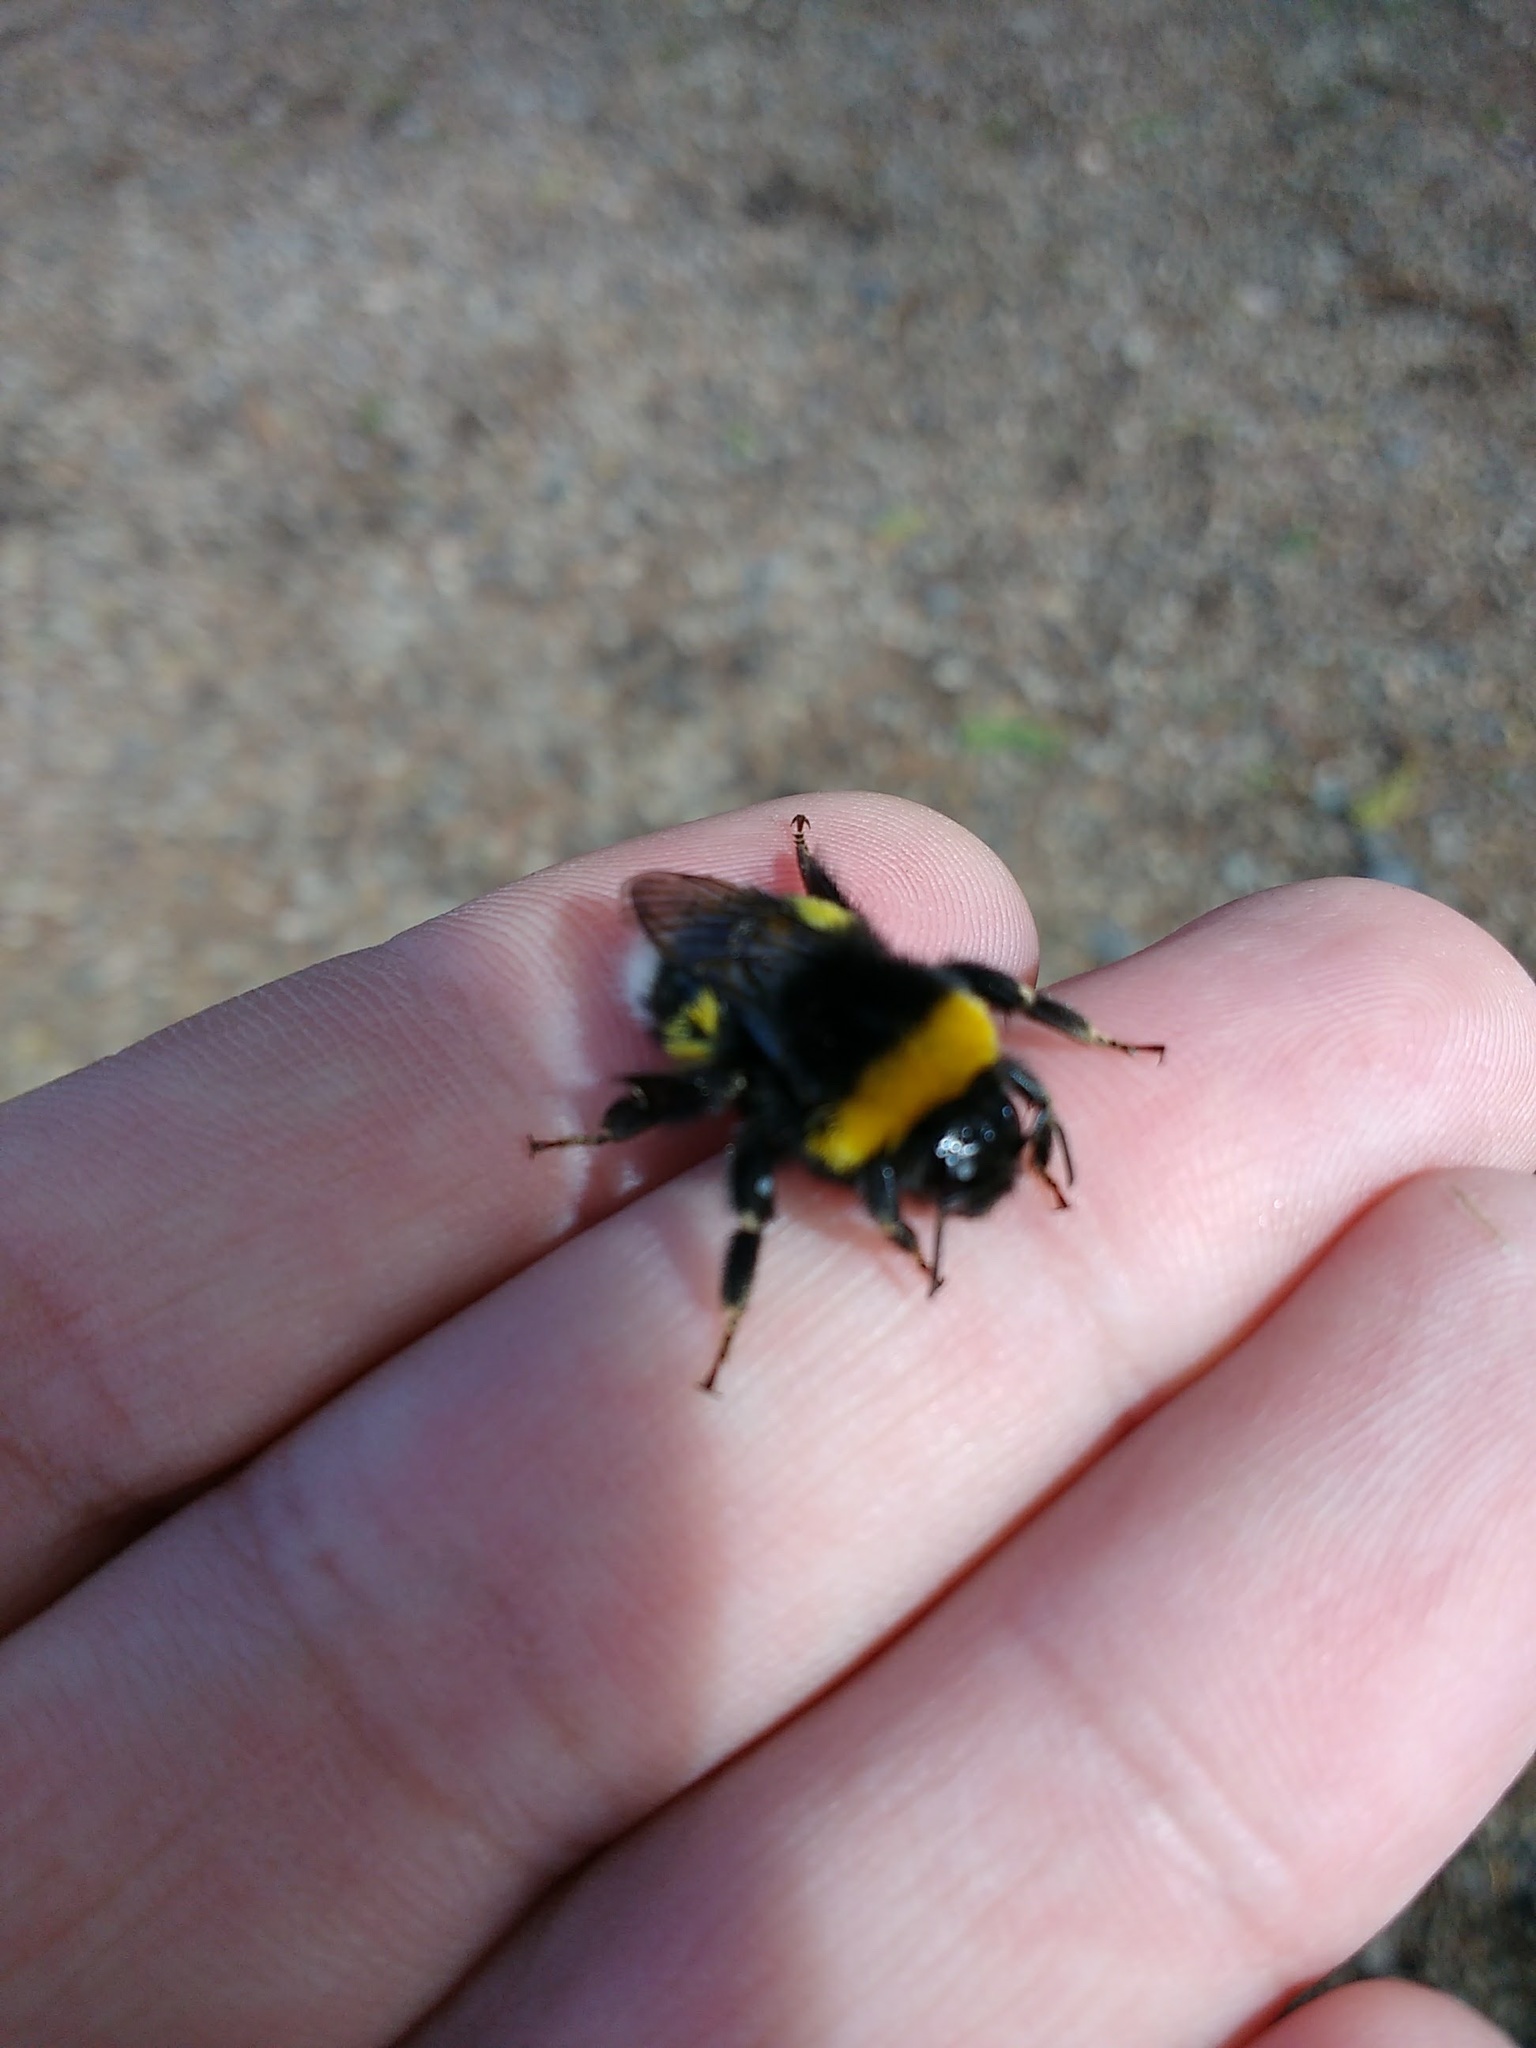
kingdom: Animalia
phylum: Arthropoda
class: Insecta
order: Hymenoptera
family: Apidae
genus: Bombus
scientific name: Bombus terrestris
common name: Buff-tailed bumblebee
